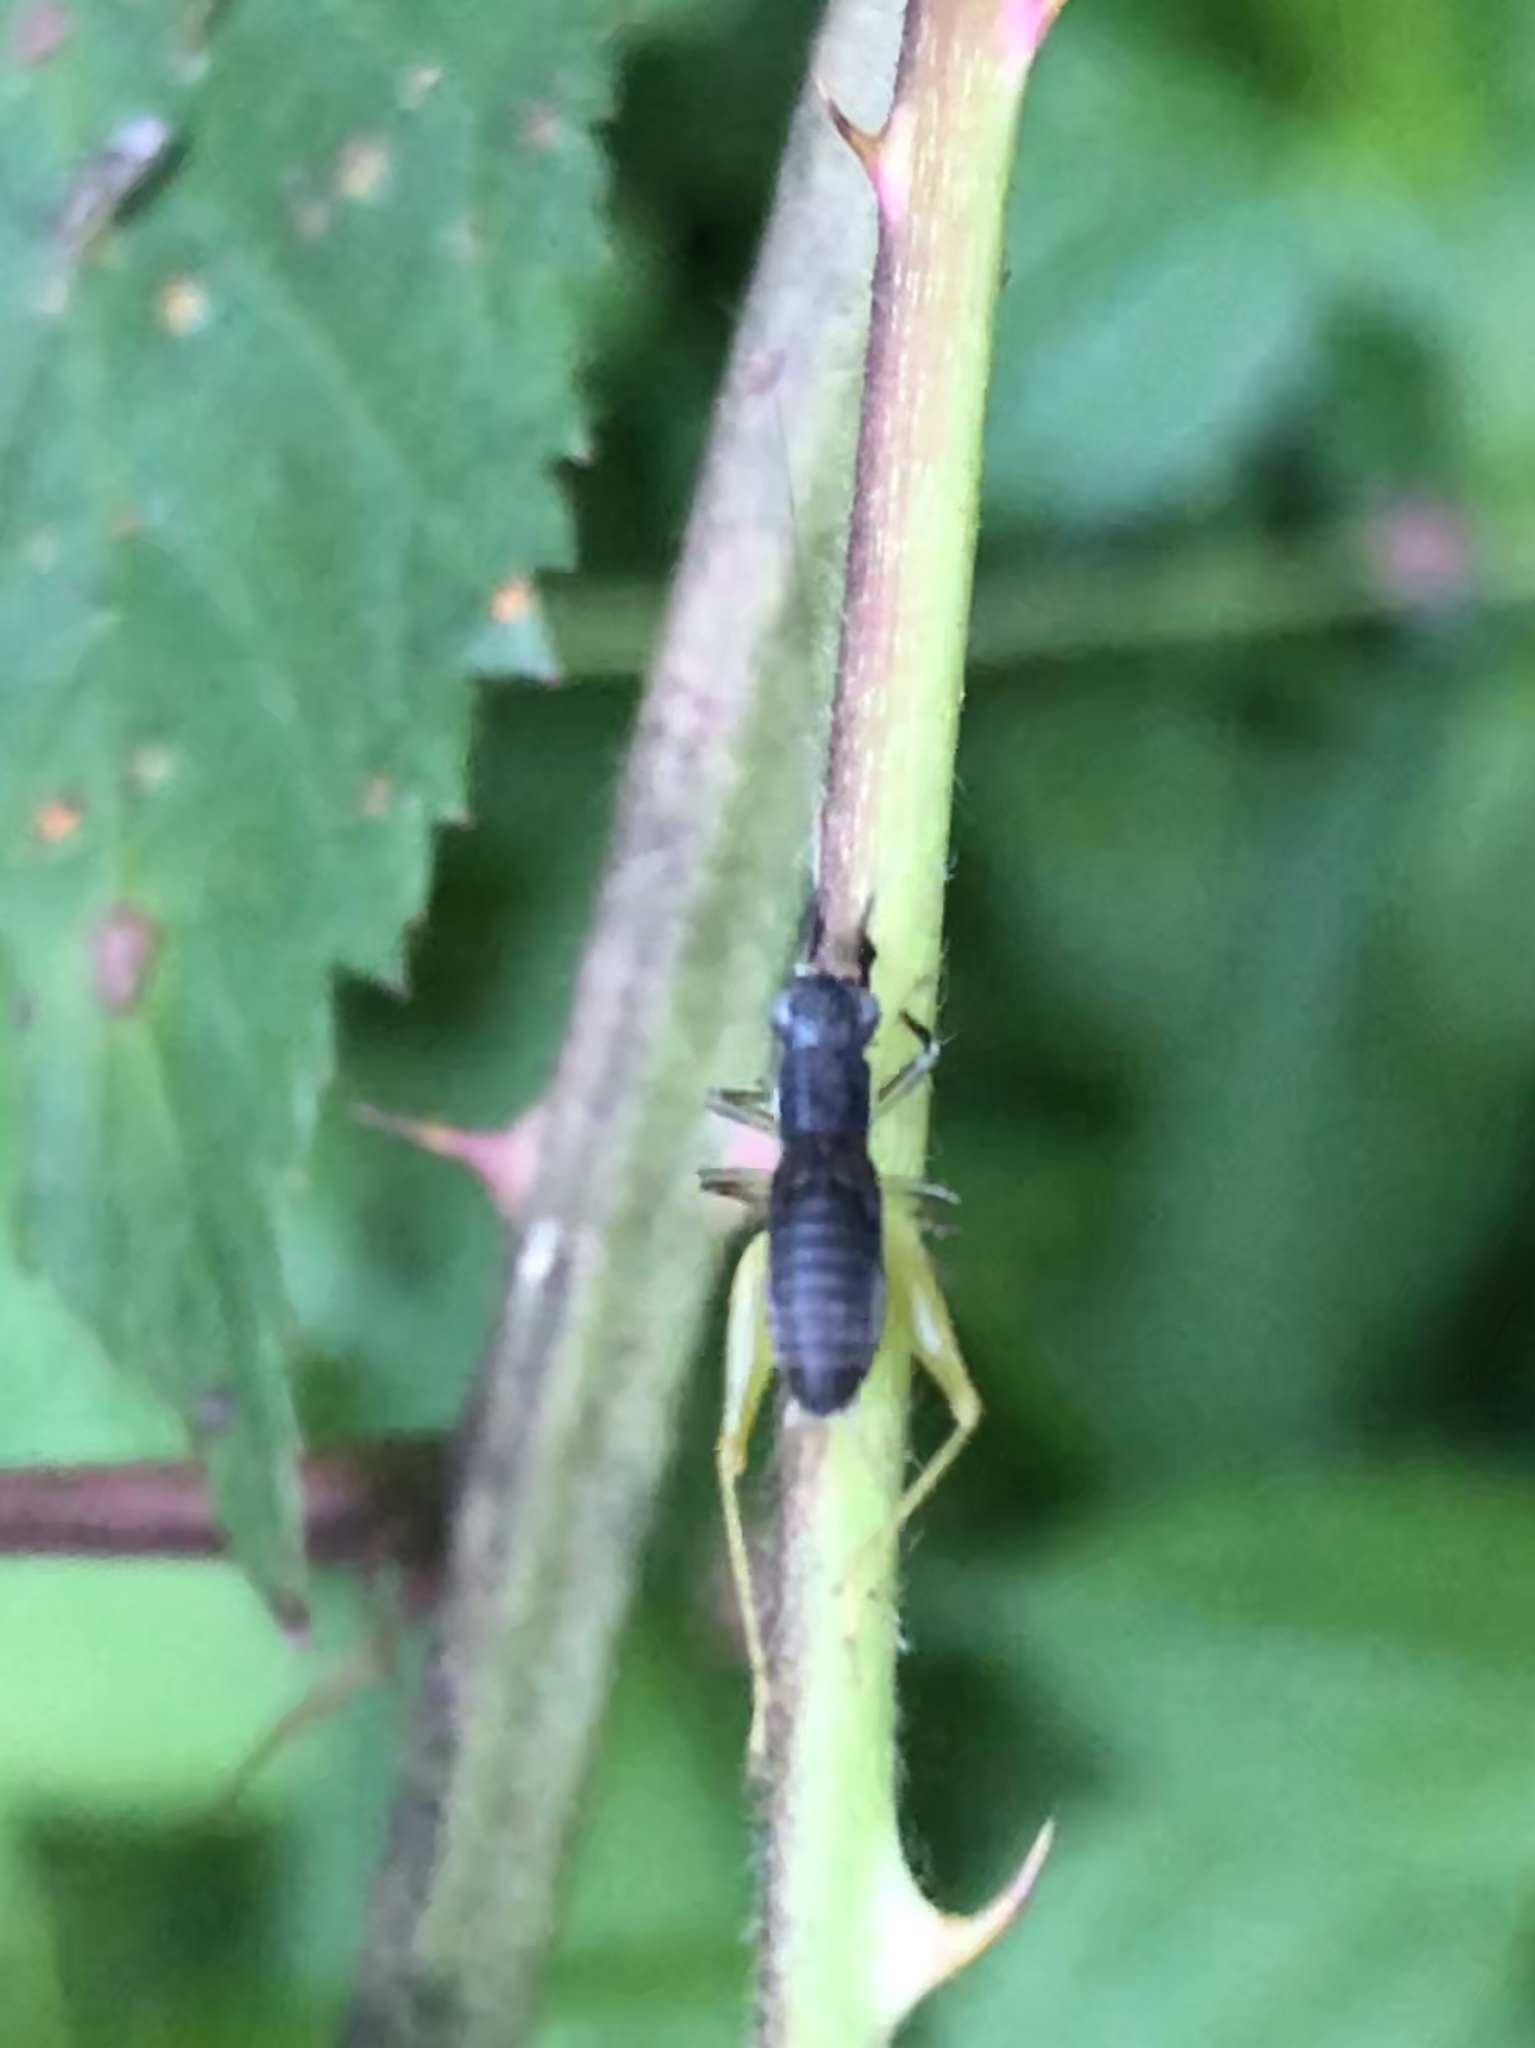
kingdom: Animalia
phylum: Arthropoda
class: Insecta
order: Orthoptera
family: Trigonidiidae
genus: Phyllopalpus
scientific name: Phyllopalpus pulchellus
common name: Handsome trig
